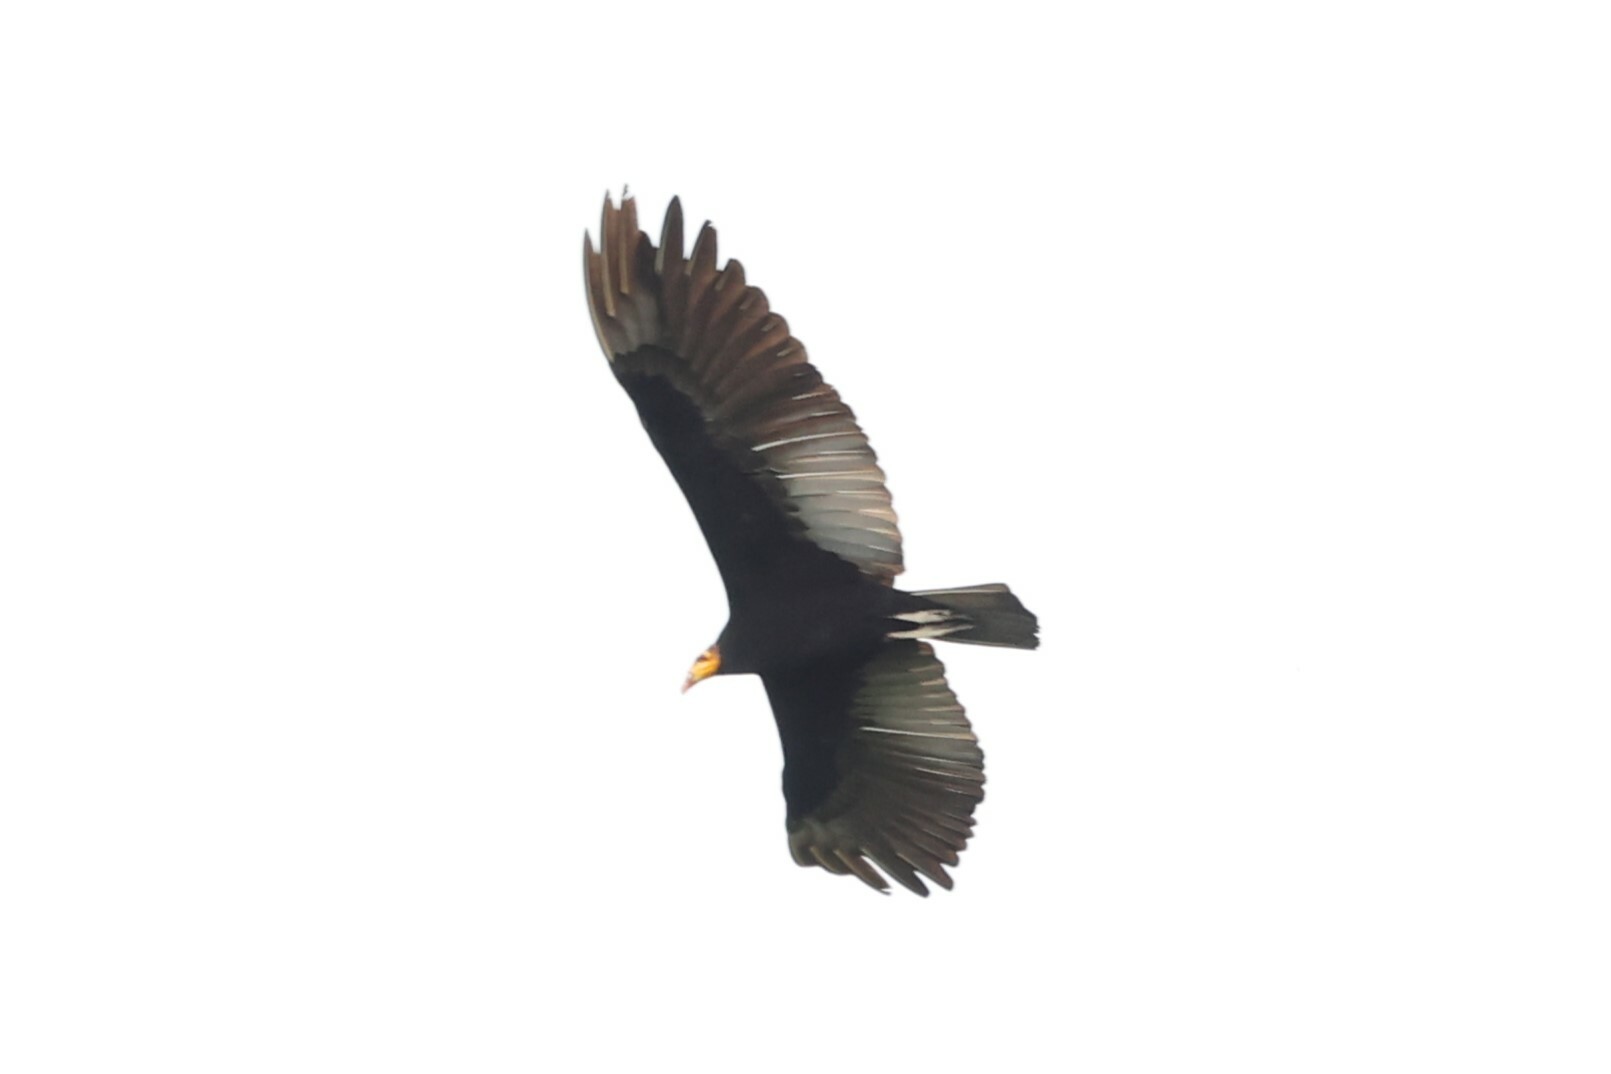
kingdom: Animalia
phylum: Chordata
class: Aves
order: Accipitriformes
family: Cathartidae
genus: Cathartes
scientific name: Cathartes melambrotus
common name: Greater yellow-headed vulture
